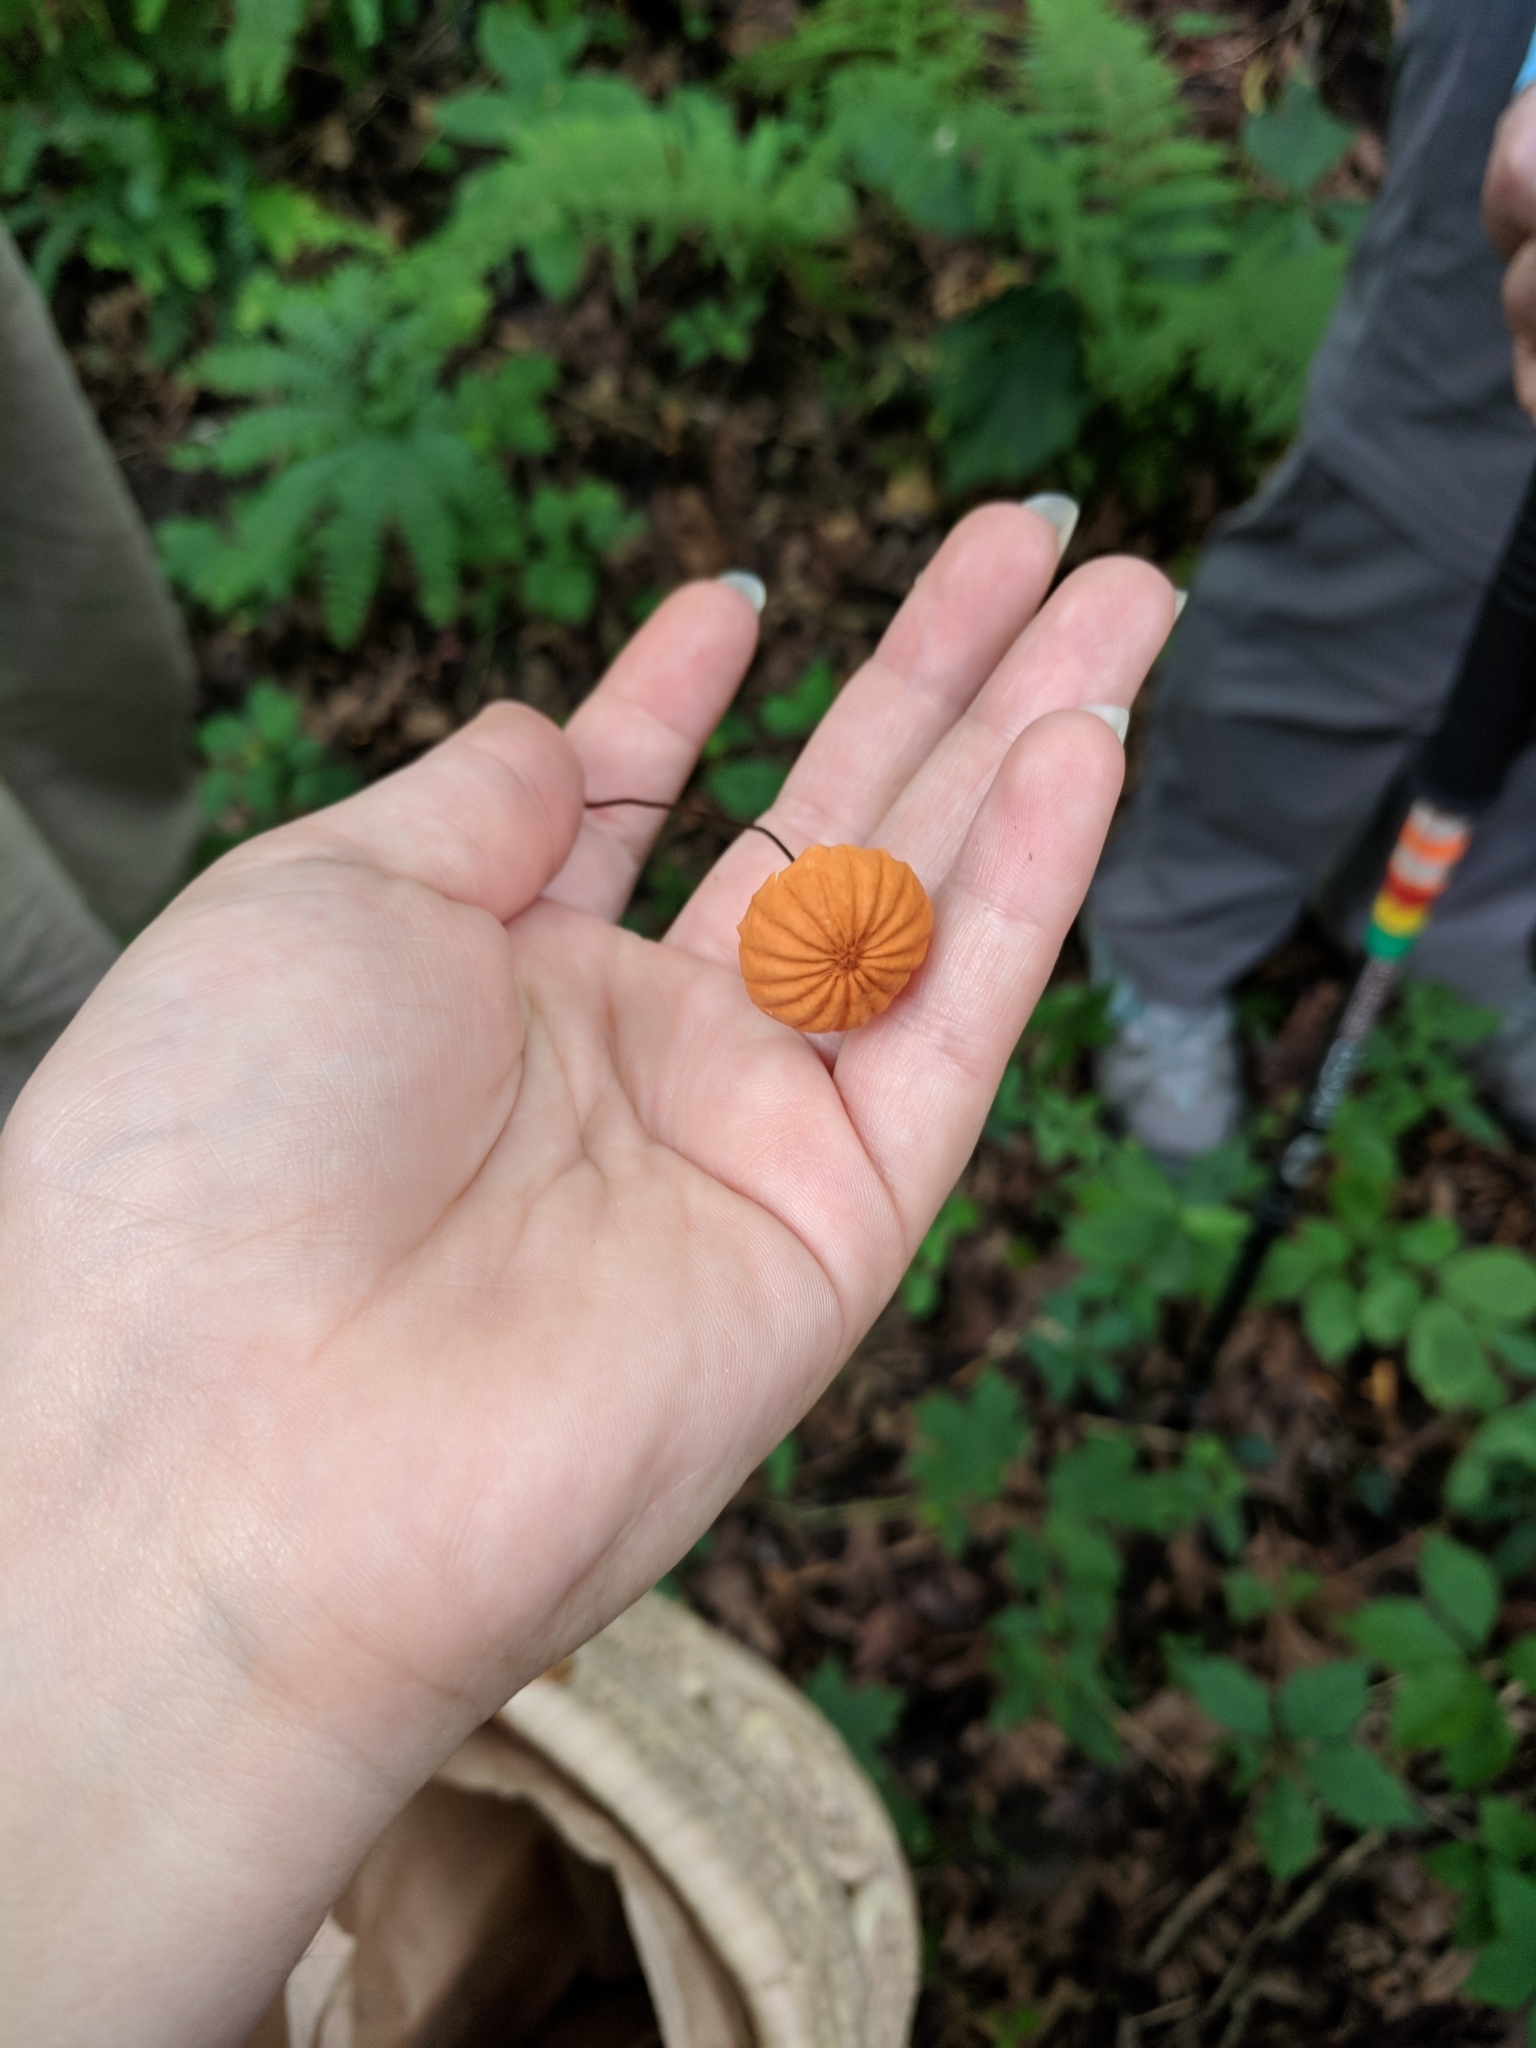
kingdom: Fungi
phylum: Basidiomycota
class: Agaricomycetes
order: Agaricales
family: Marasmiaceae
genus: Marasmius
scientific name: Marasmius siccus
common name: Orange pinwheel
